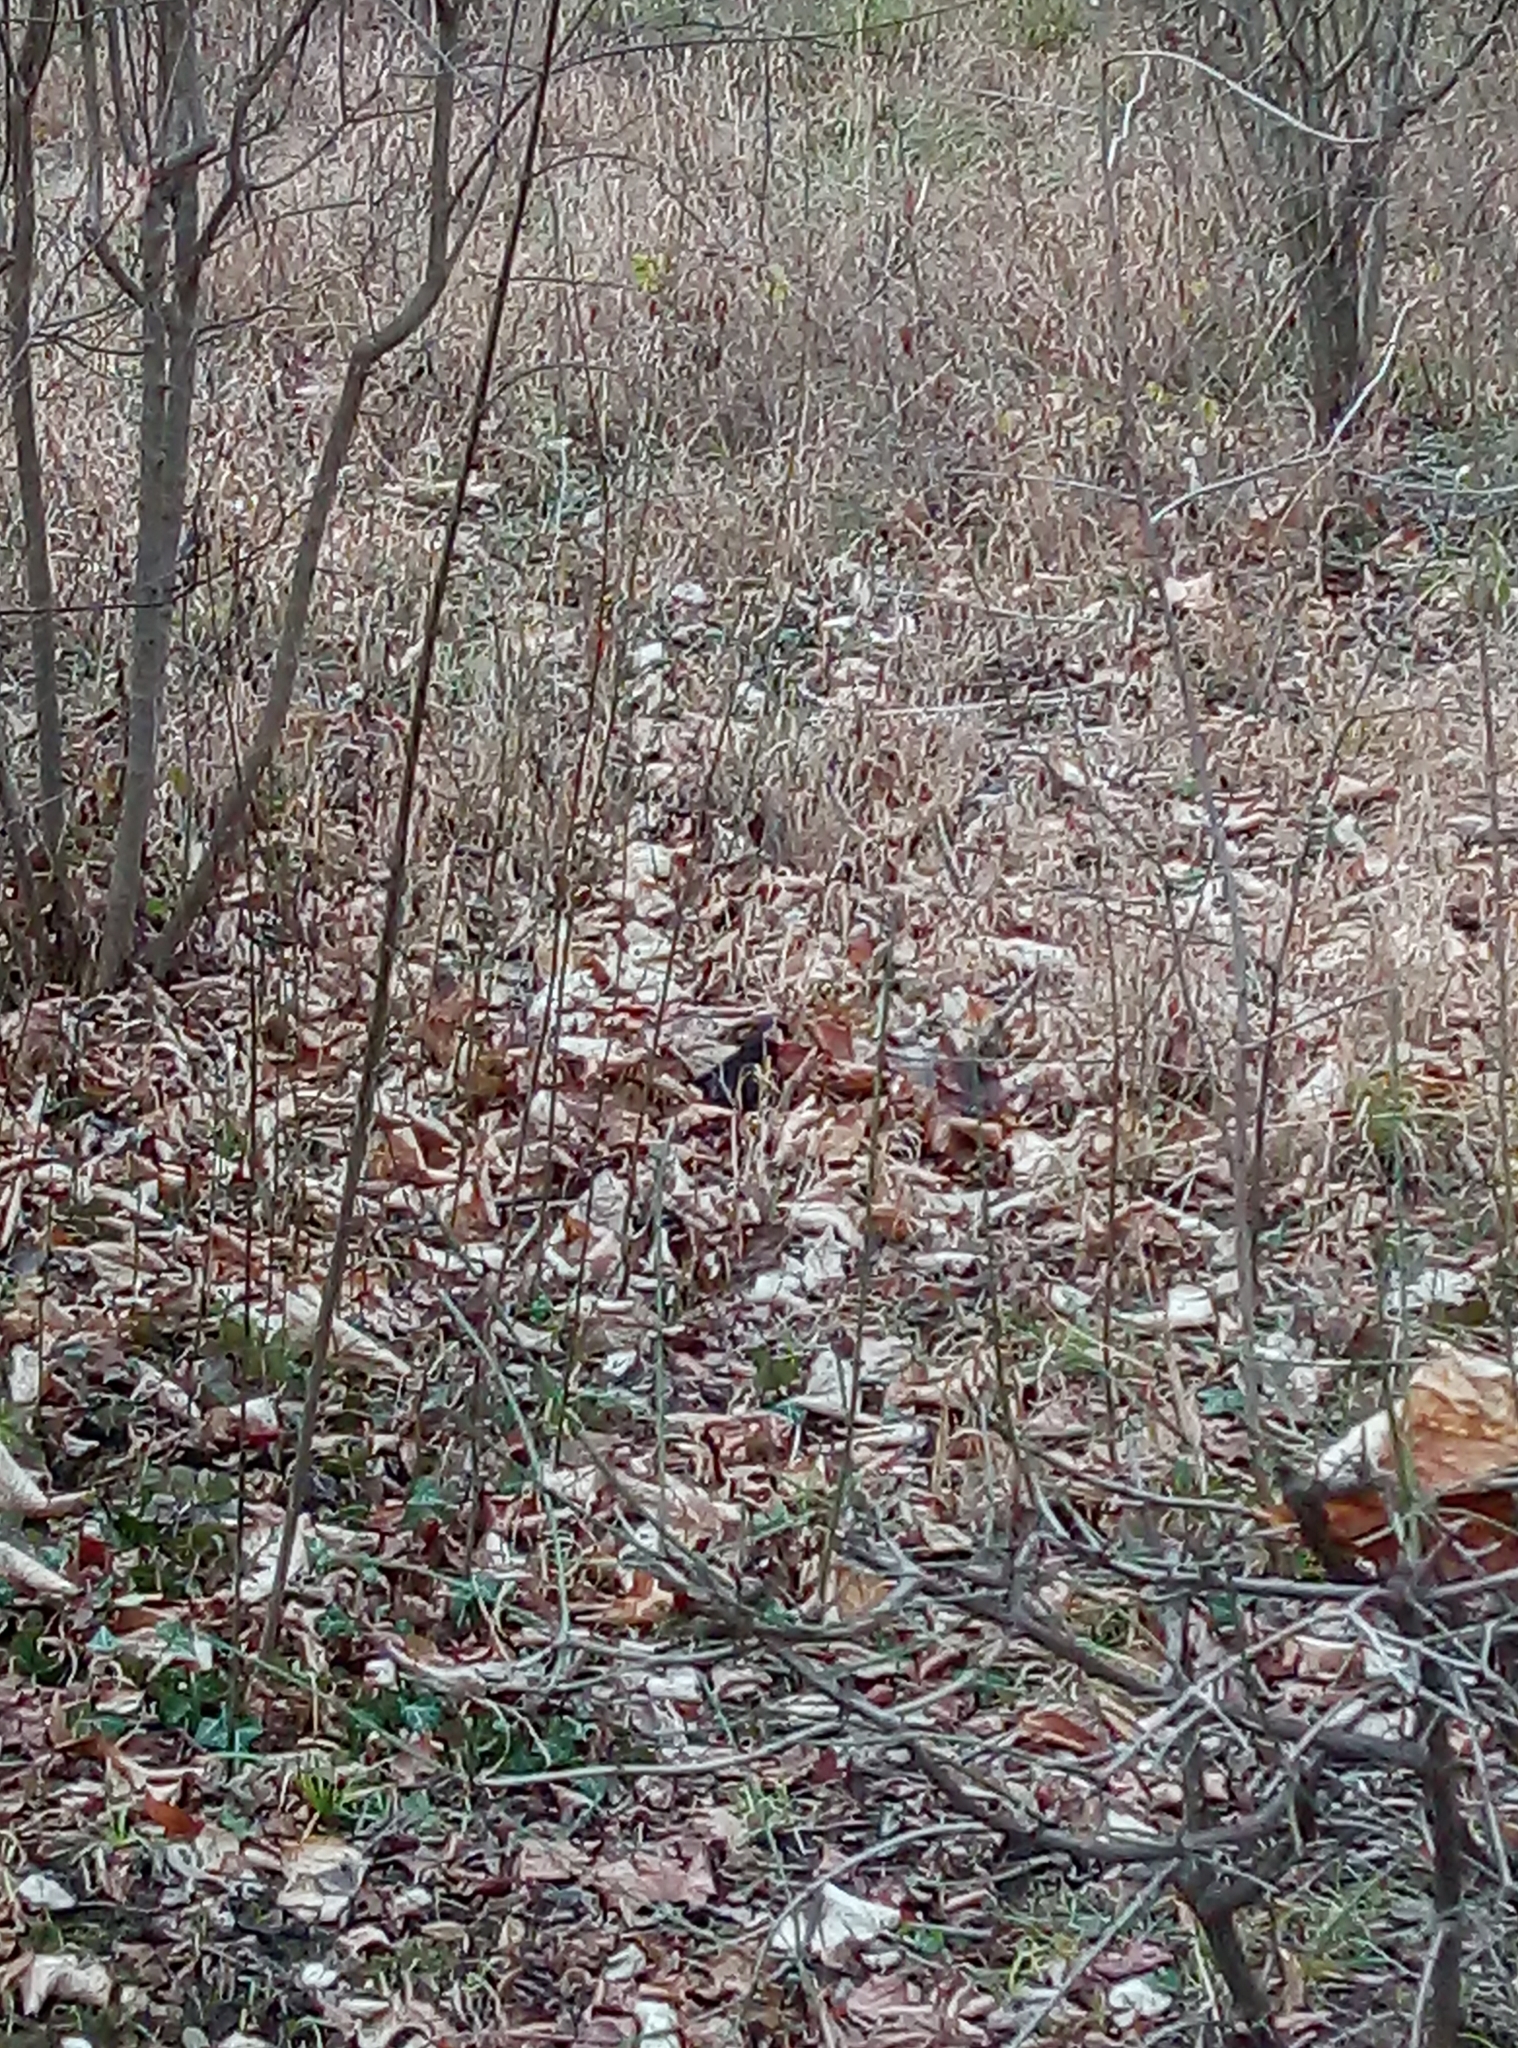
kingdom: Animalia
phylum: Chordata
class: Aves
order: Passeriformes
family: Turdidae
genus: Turdus
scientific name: Turdus merula
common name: Common blackbird
